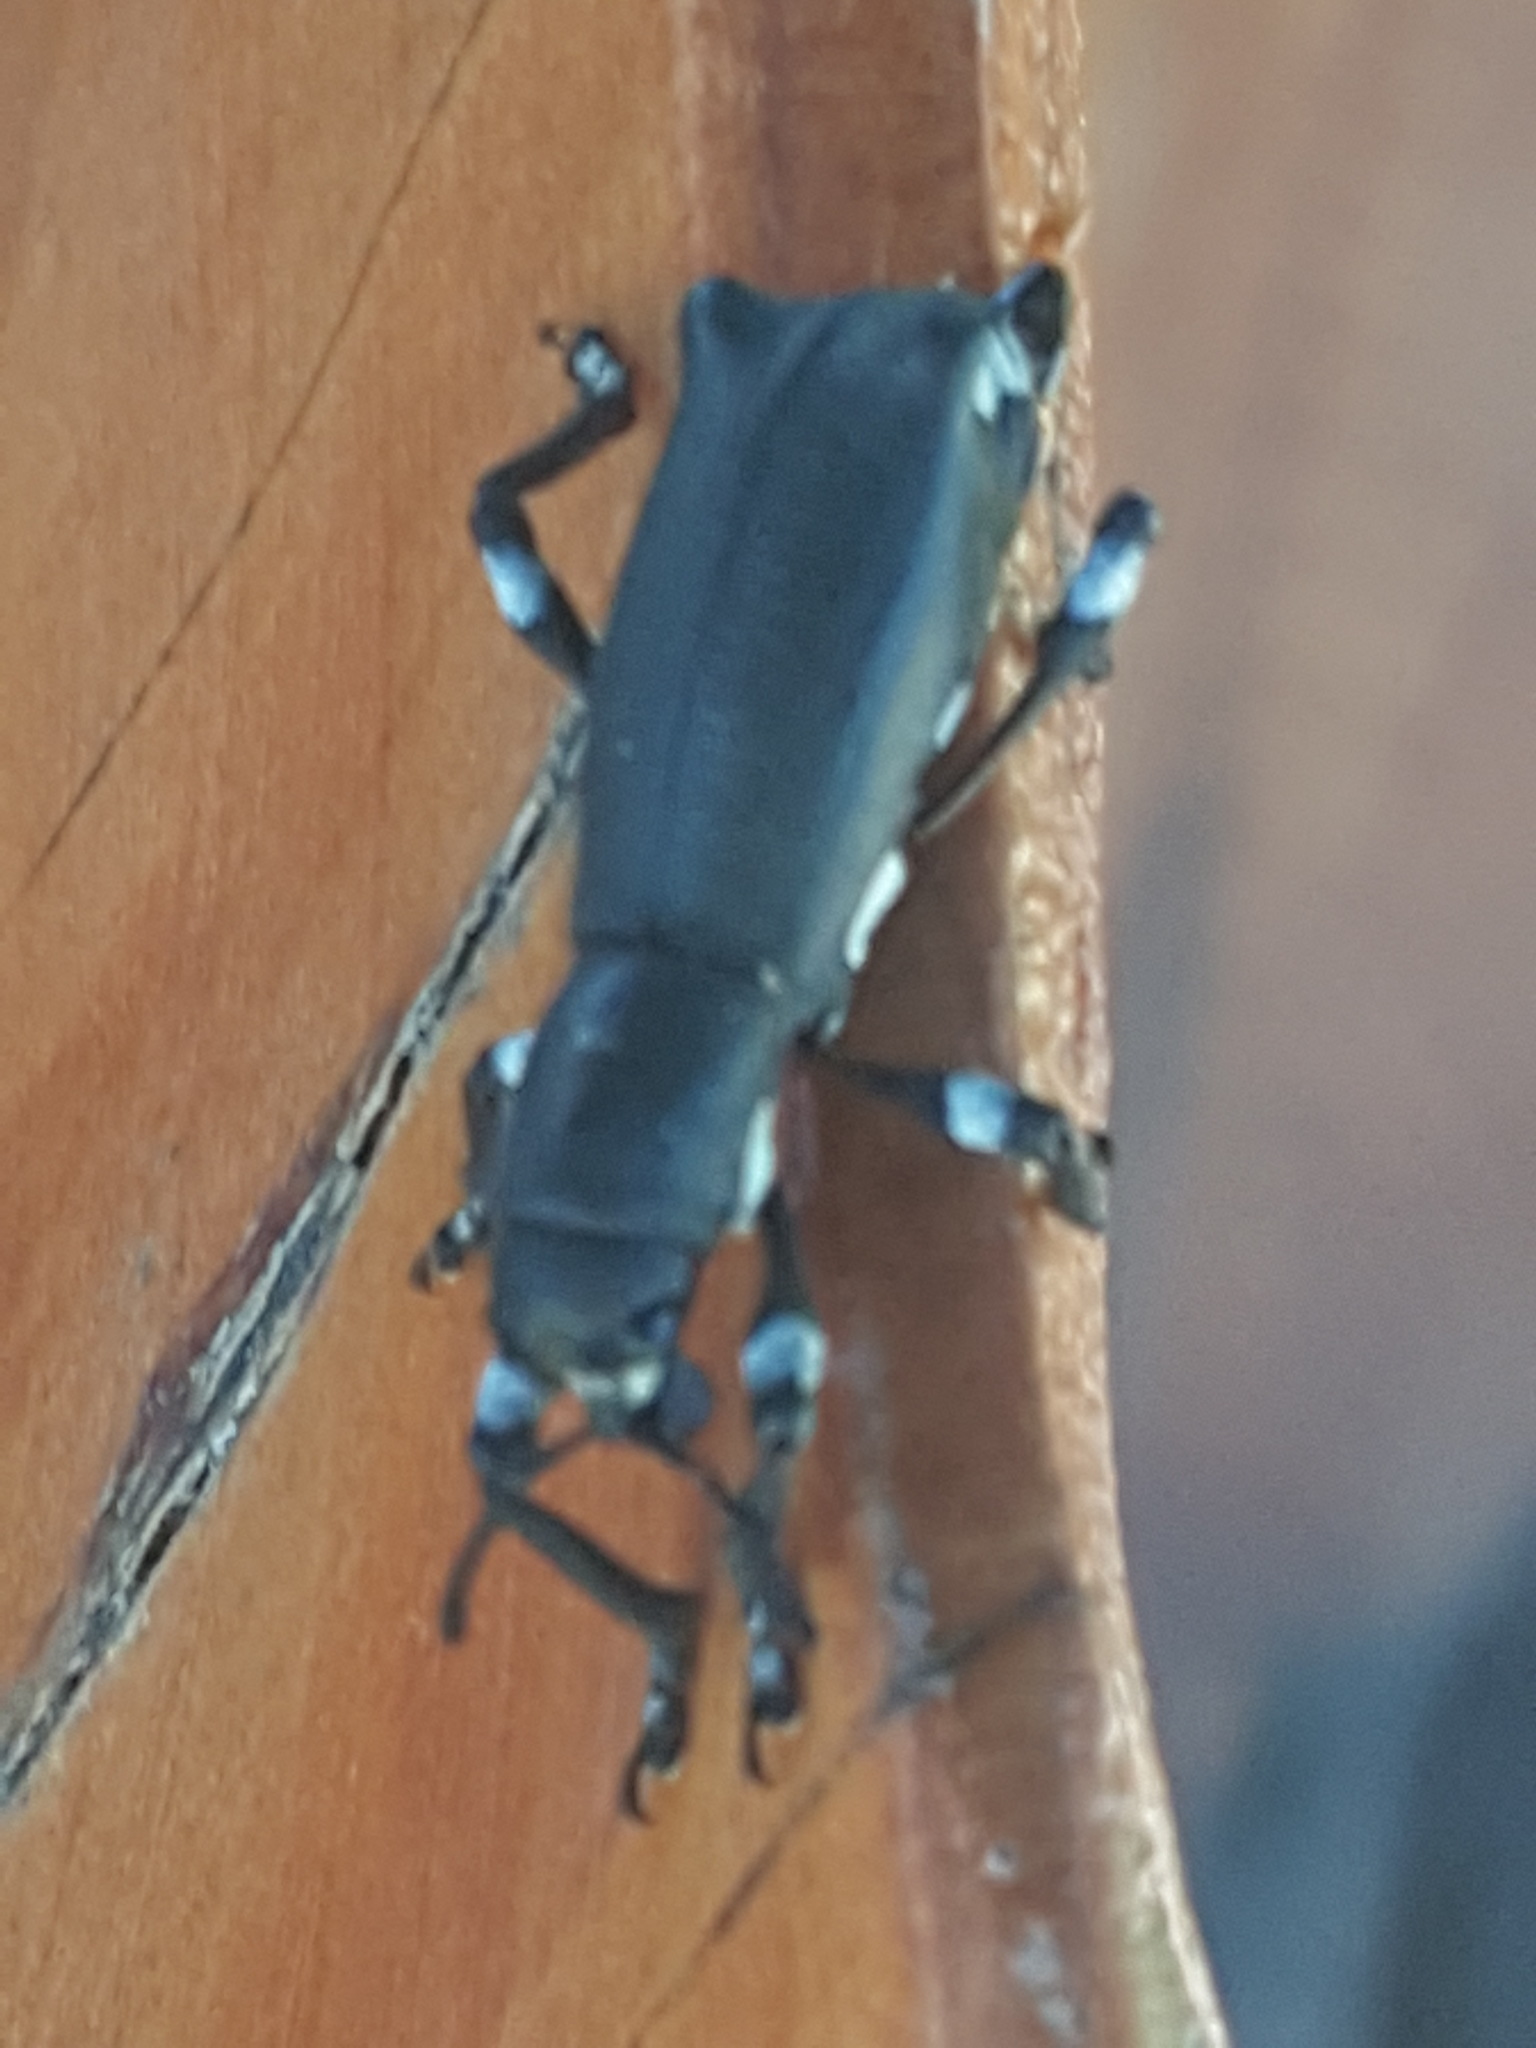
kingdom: Animalia
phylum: Arthropoda
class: Insecta
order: Coleoptera
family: Curculionidae
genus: Aegorhinus
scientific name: Aegorhinus
